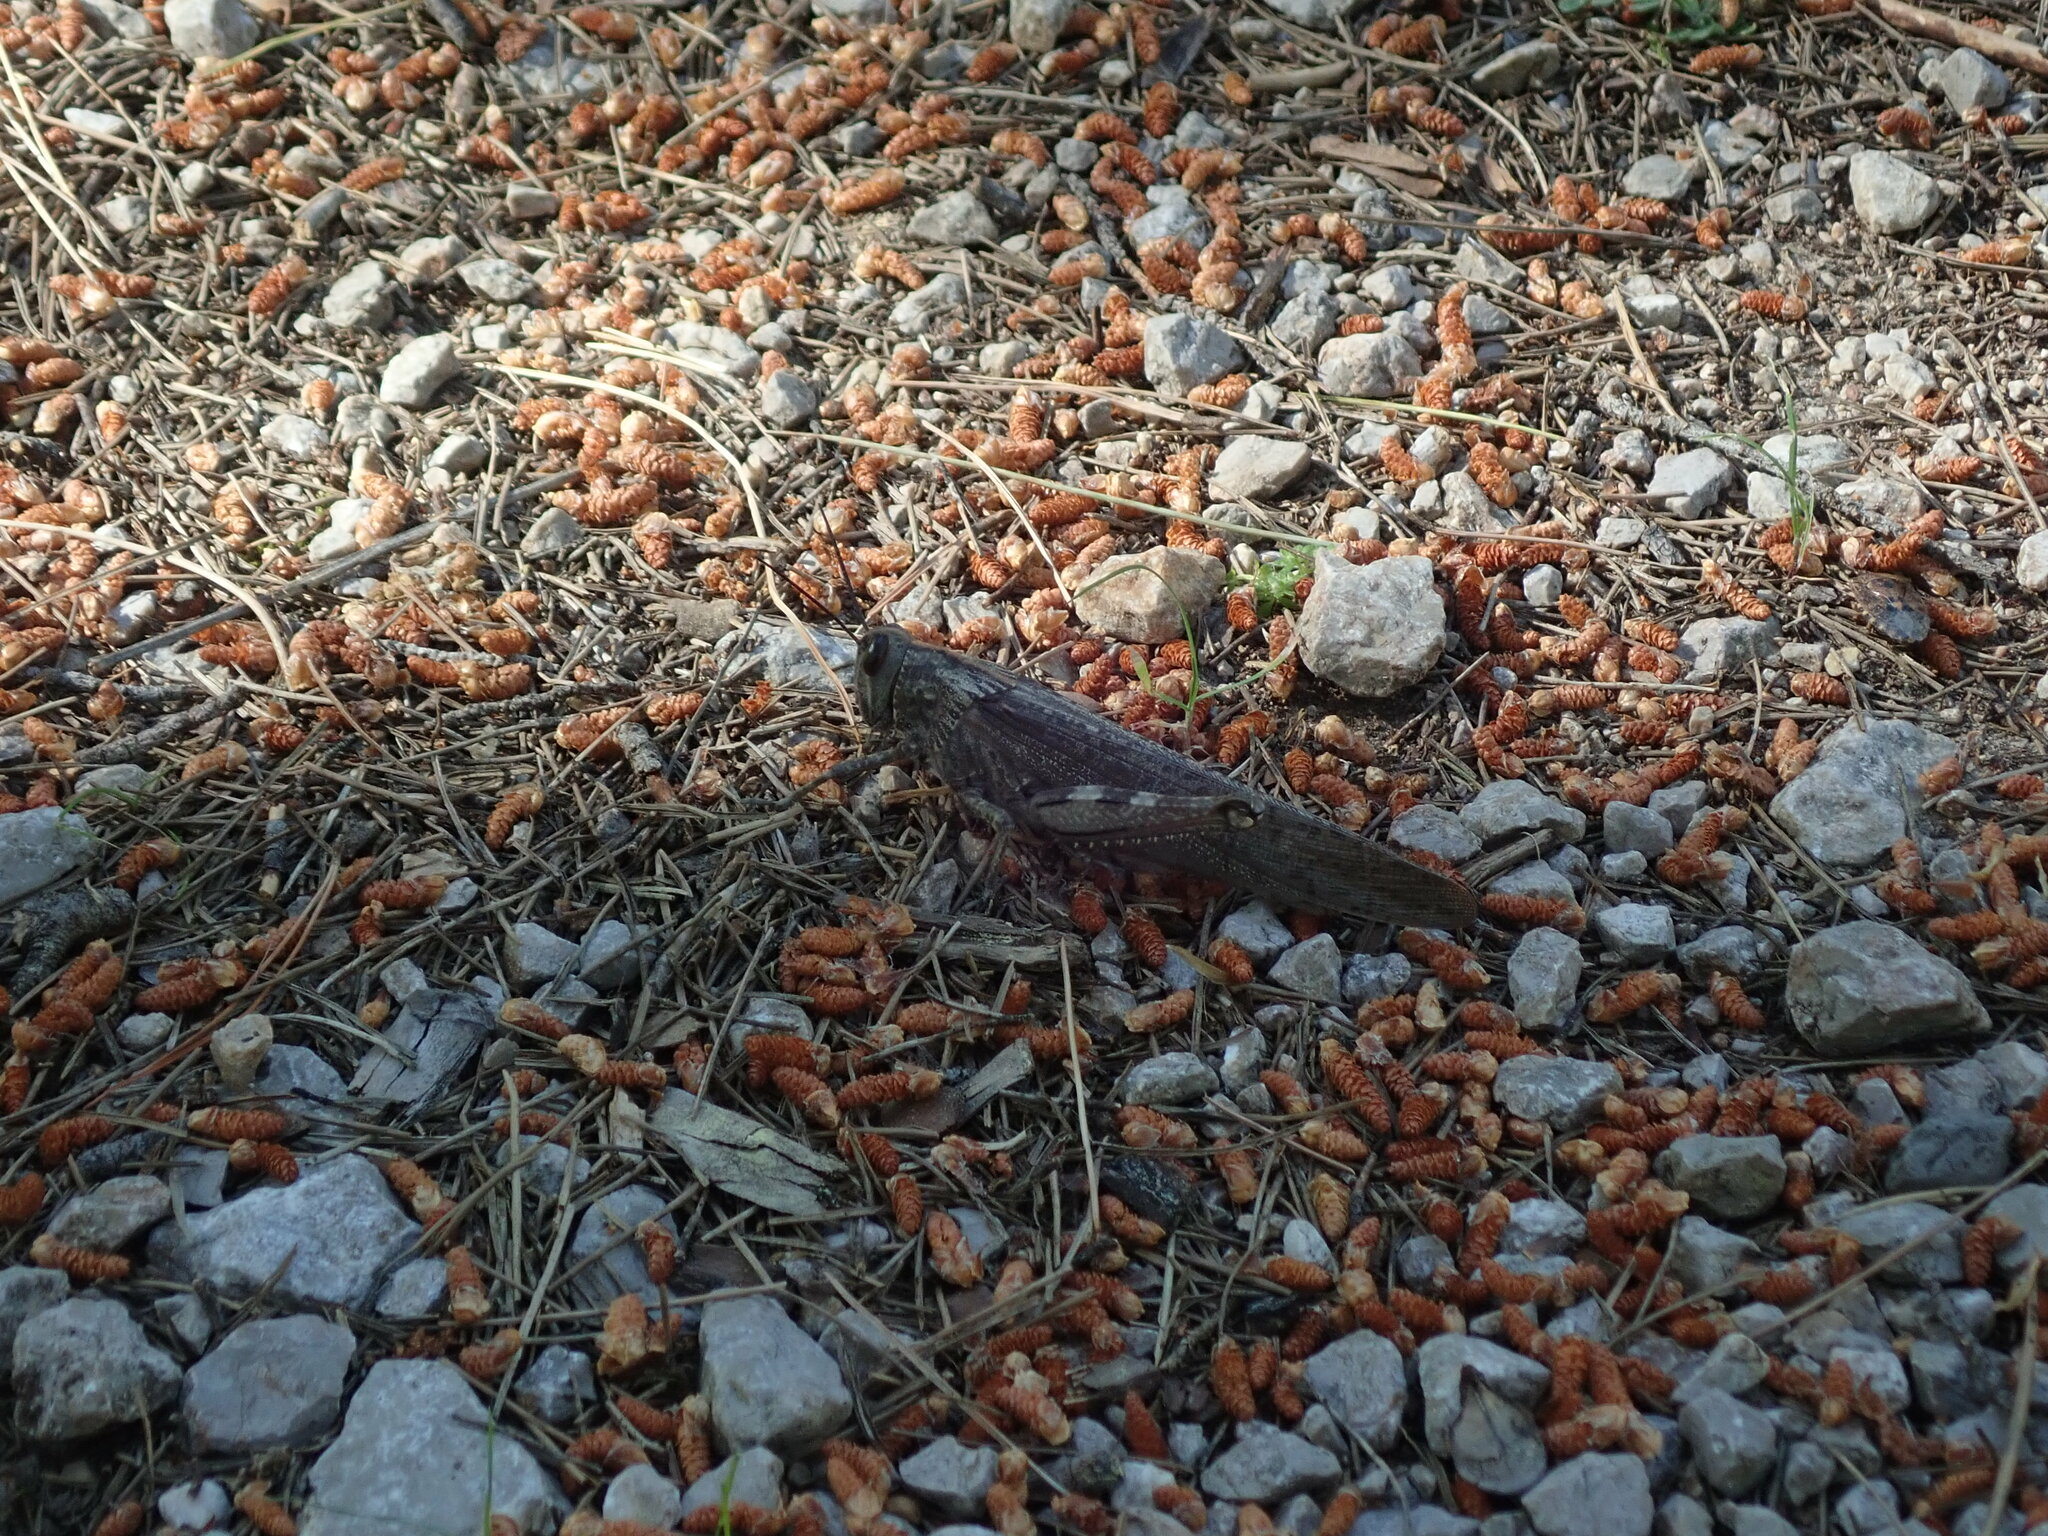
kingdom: Animalia
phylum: Arthropoda
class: Insecta
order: Orthoptera
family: Acrididae
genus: Anacridium
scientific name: Anacridium aegyptium
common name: Egyptian grasshopper
